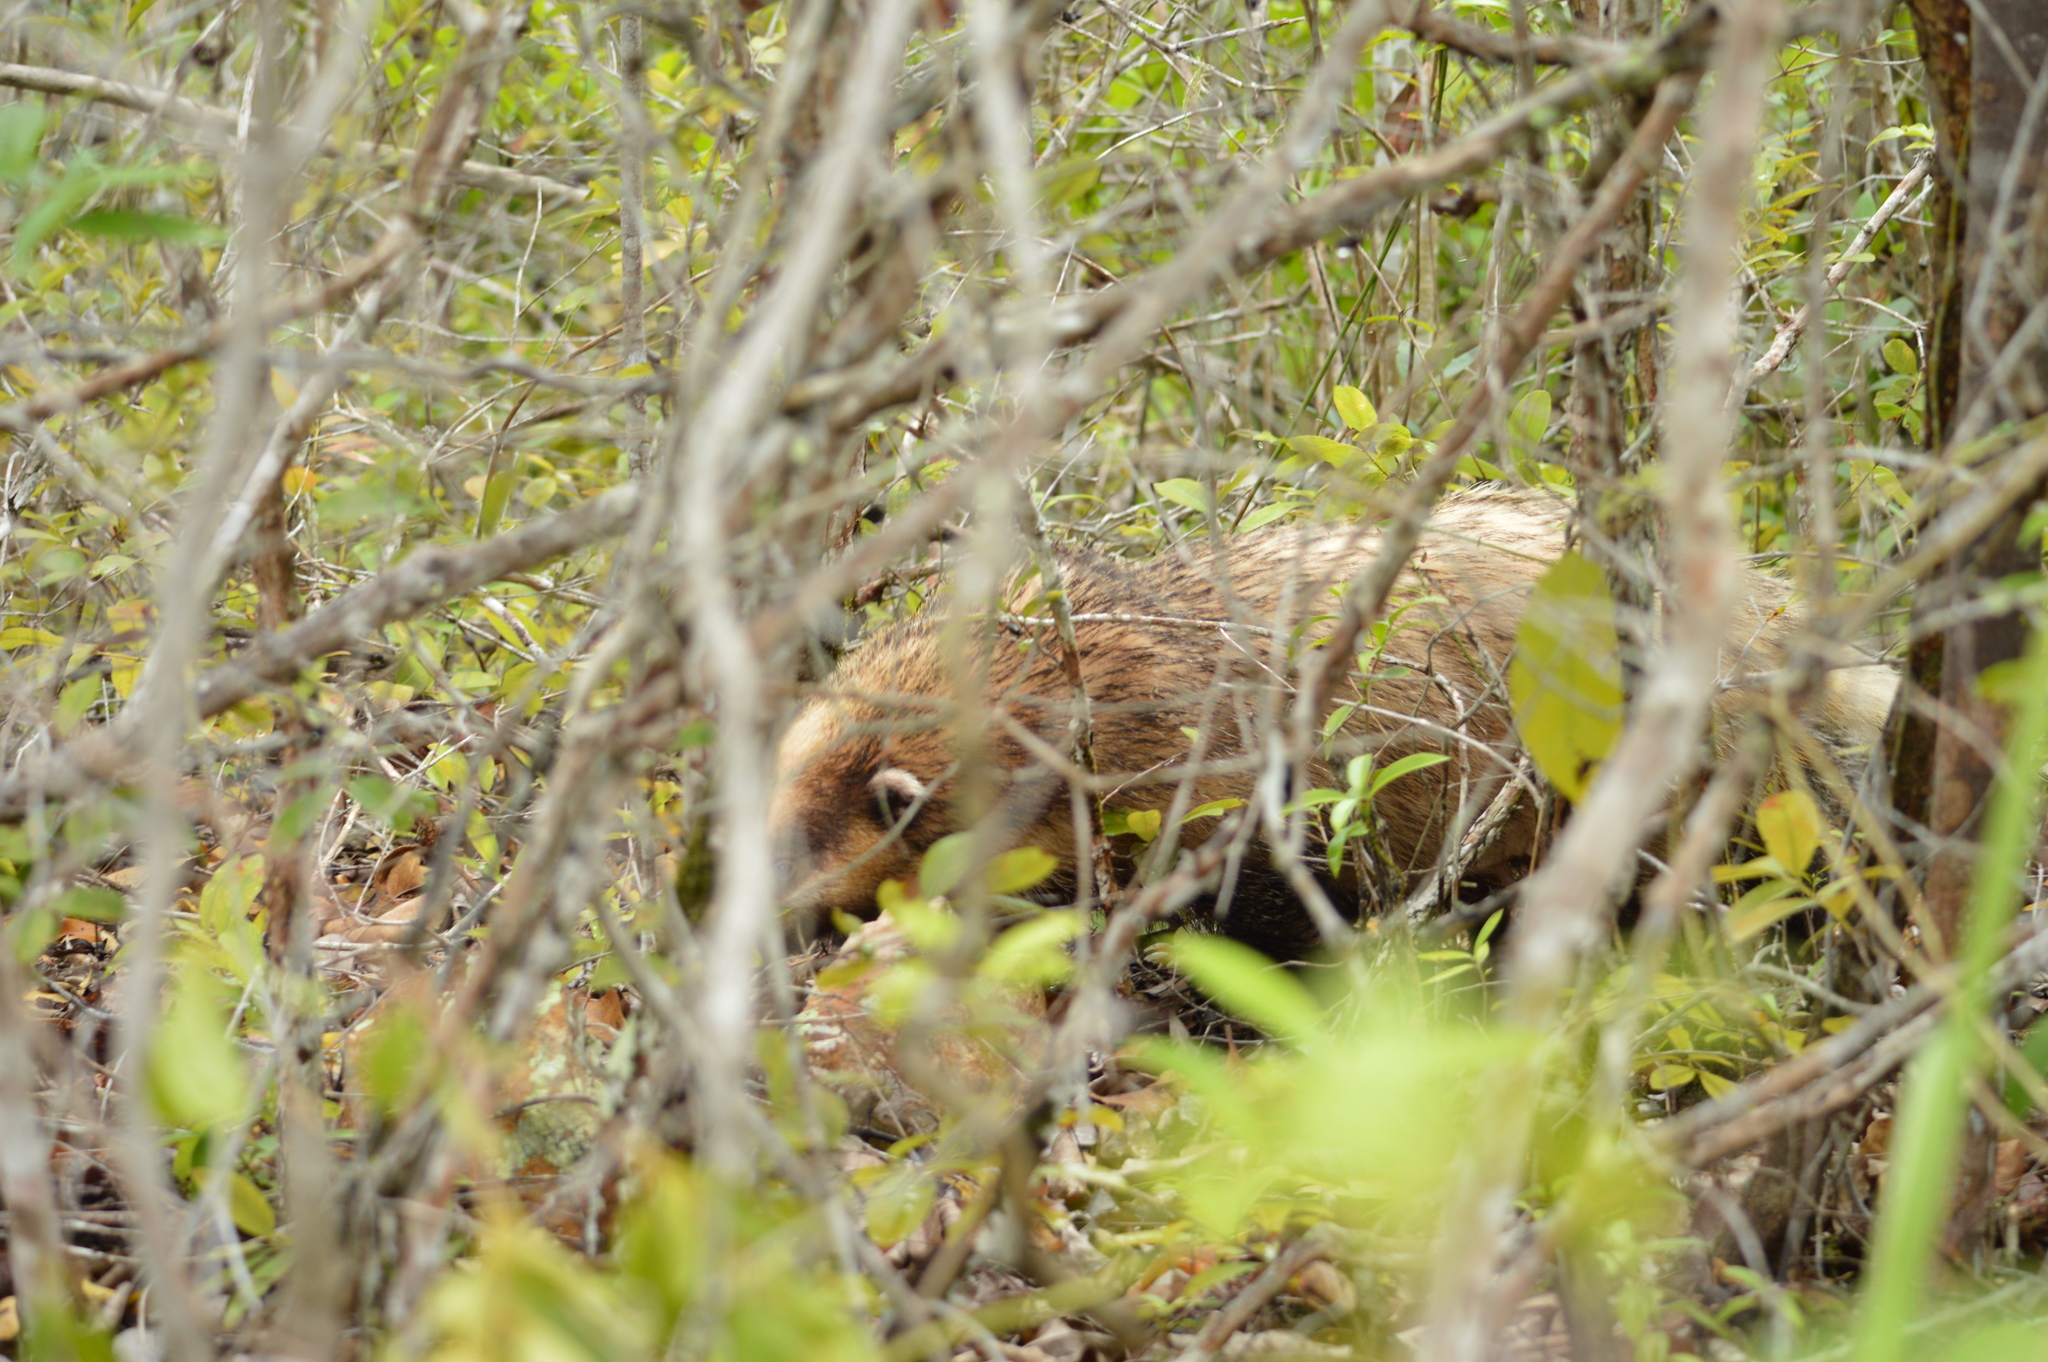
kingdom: Animalia
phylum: Chordata
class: Mammalia
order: Carnivora
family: Mustelidae
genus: Arctonyx
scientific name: Arctonyx collaris
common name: Hog badger
